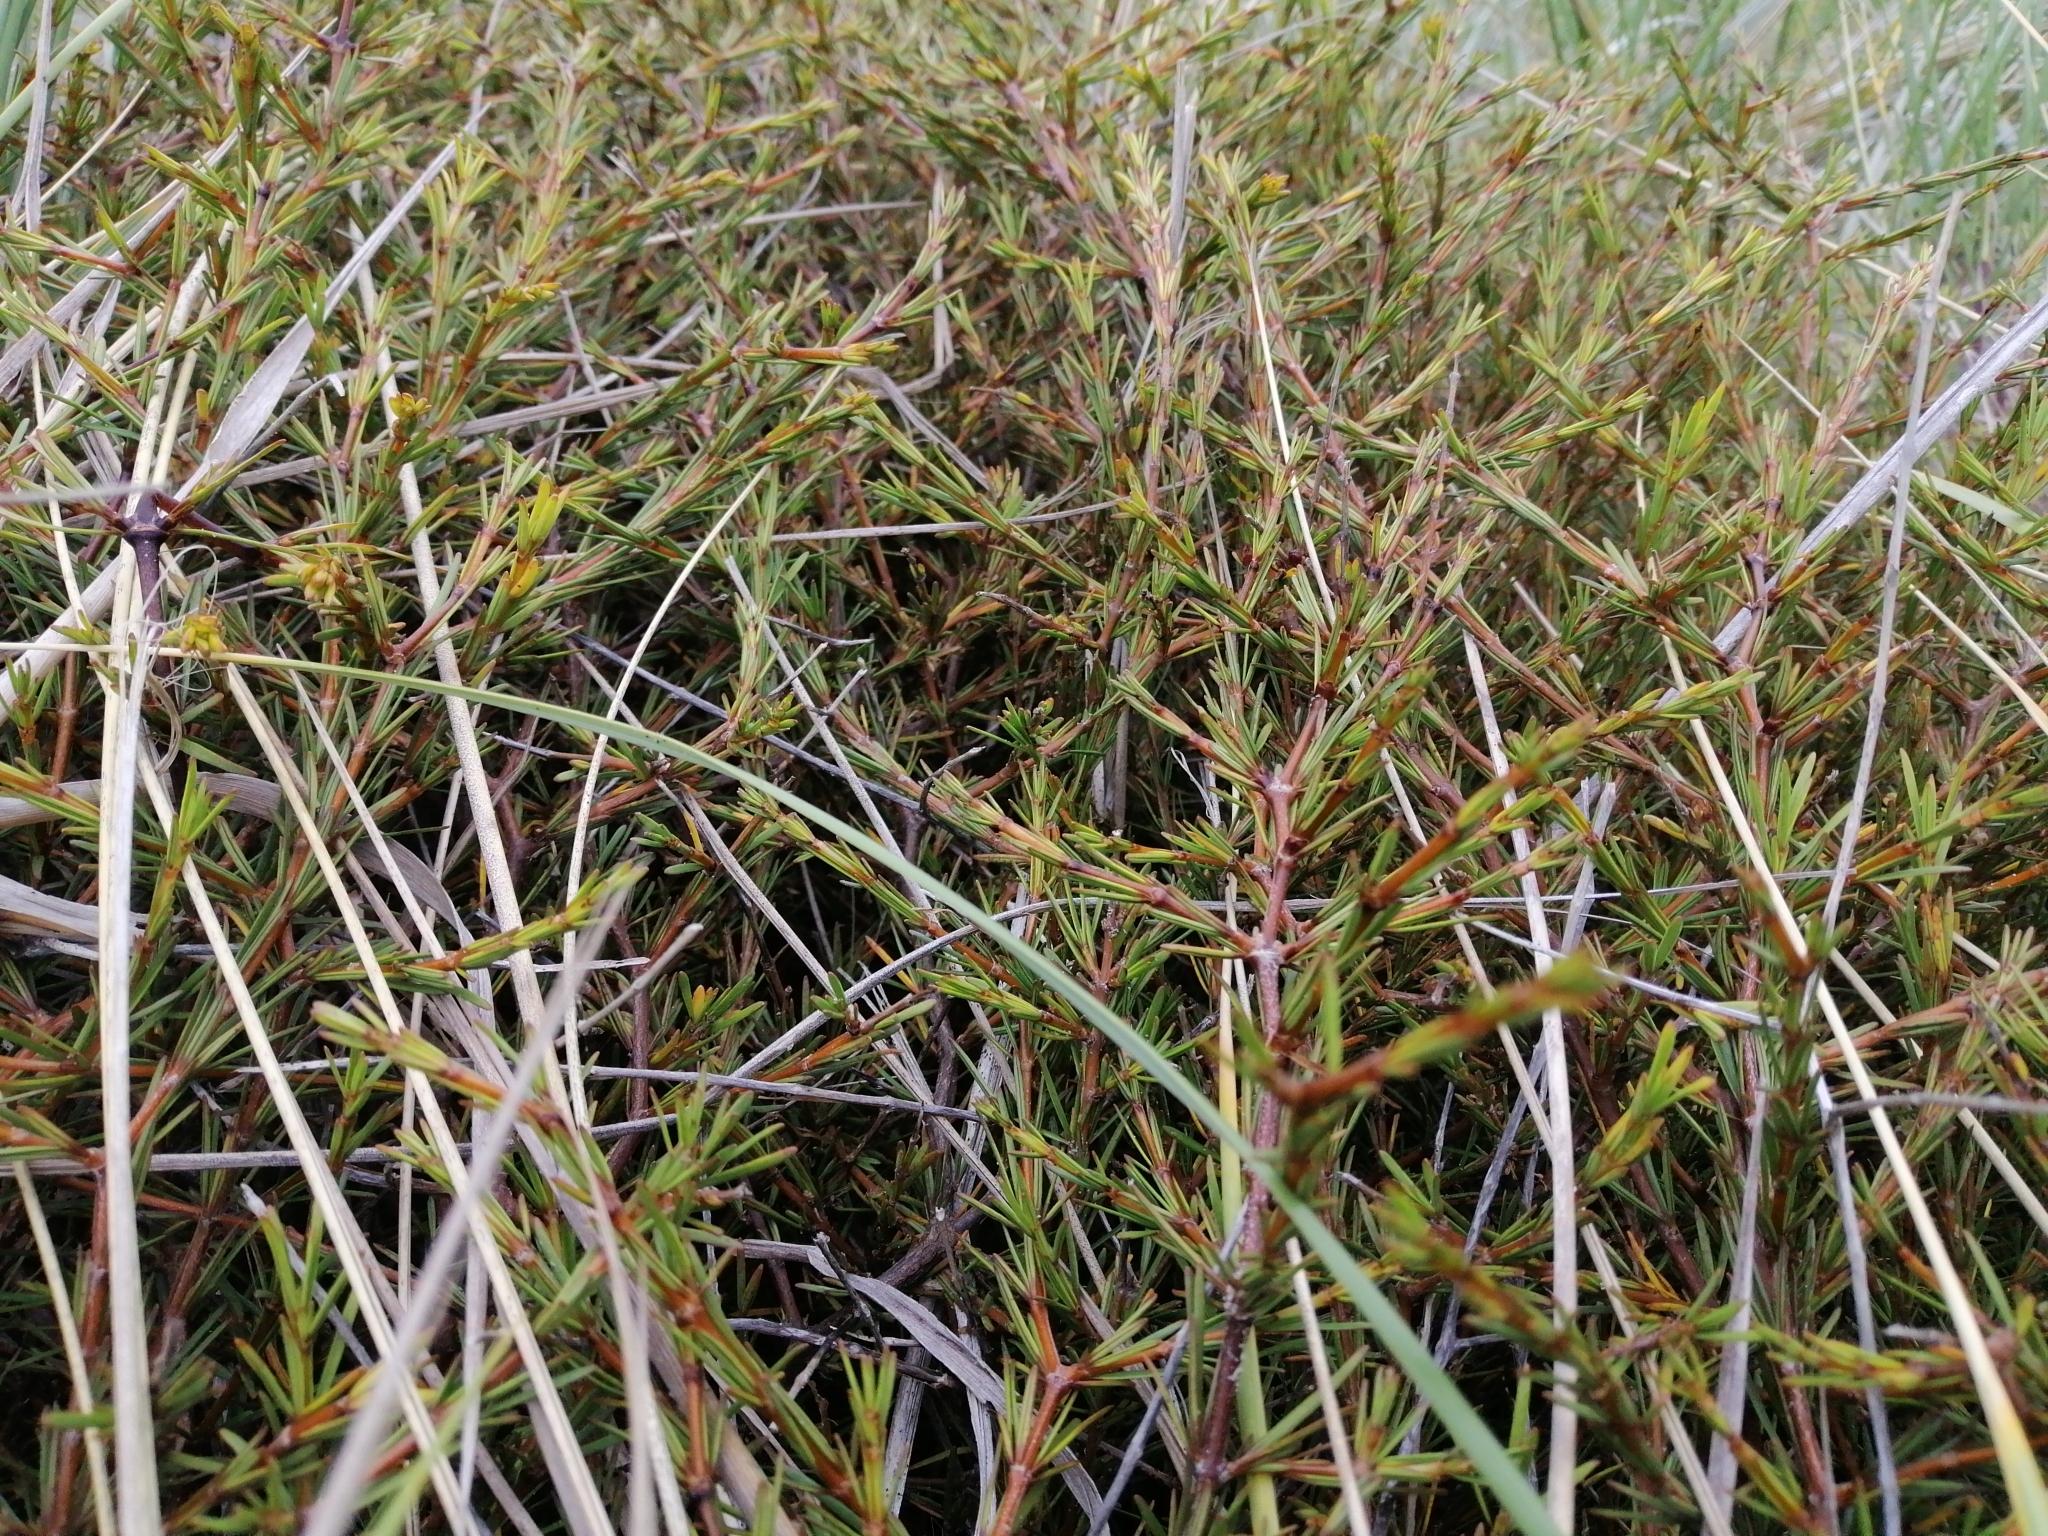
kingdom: Plantae
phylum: Tracheophyta
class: Magnoliopsida
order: Gentianales
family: Rubiaceae
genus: Coprosma
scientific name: Coprosma acerosa
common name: Sand coprosma
